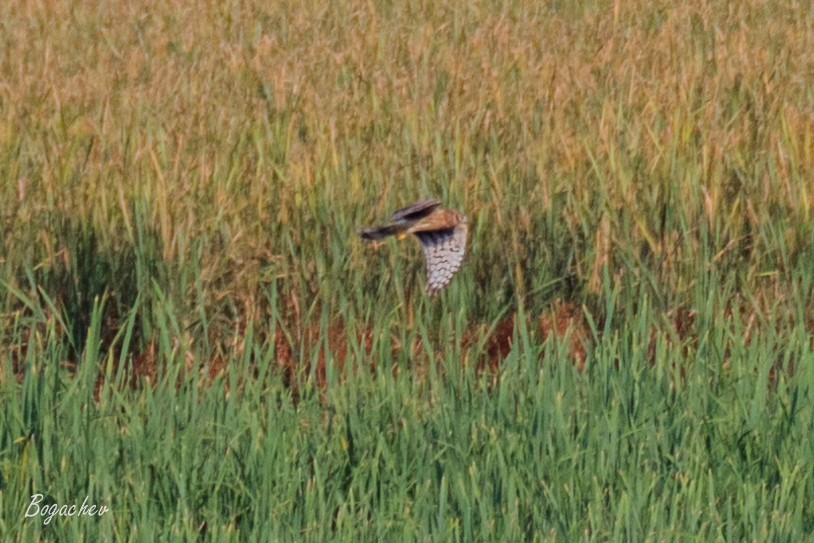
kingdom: Animalia
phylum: Chordata
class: Aves
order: Accipitriformes
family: Accipitridae
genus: Circus
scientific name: Circus aeruginosus
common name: Western marsh harrier
